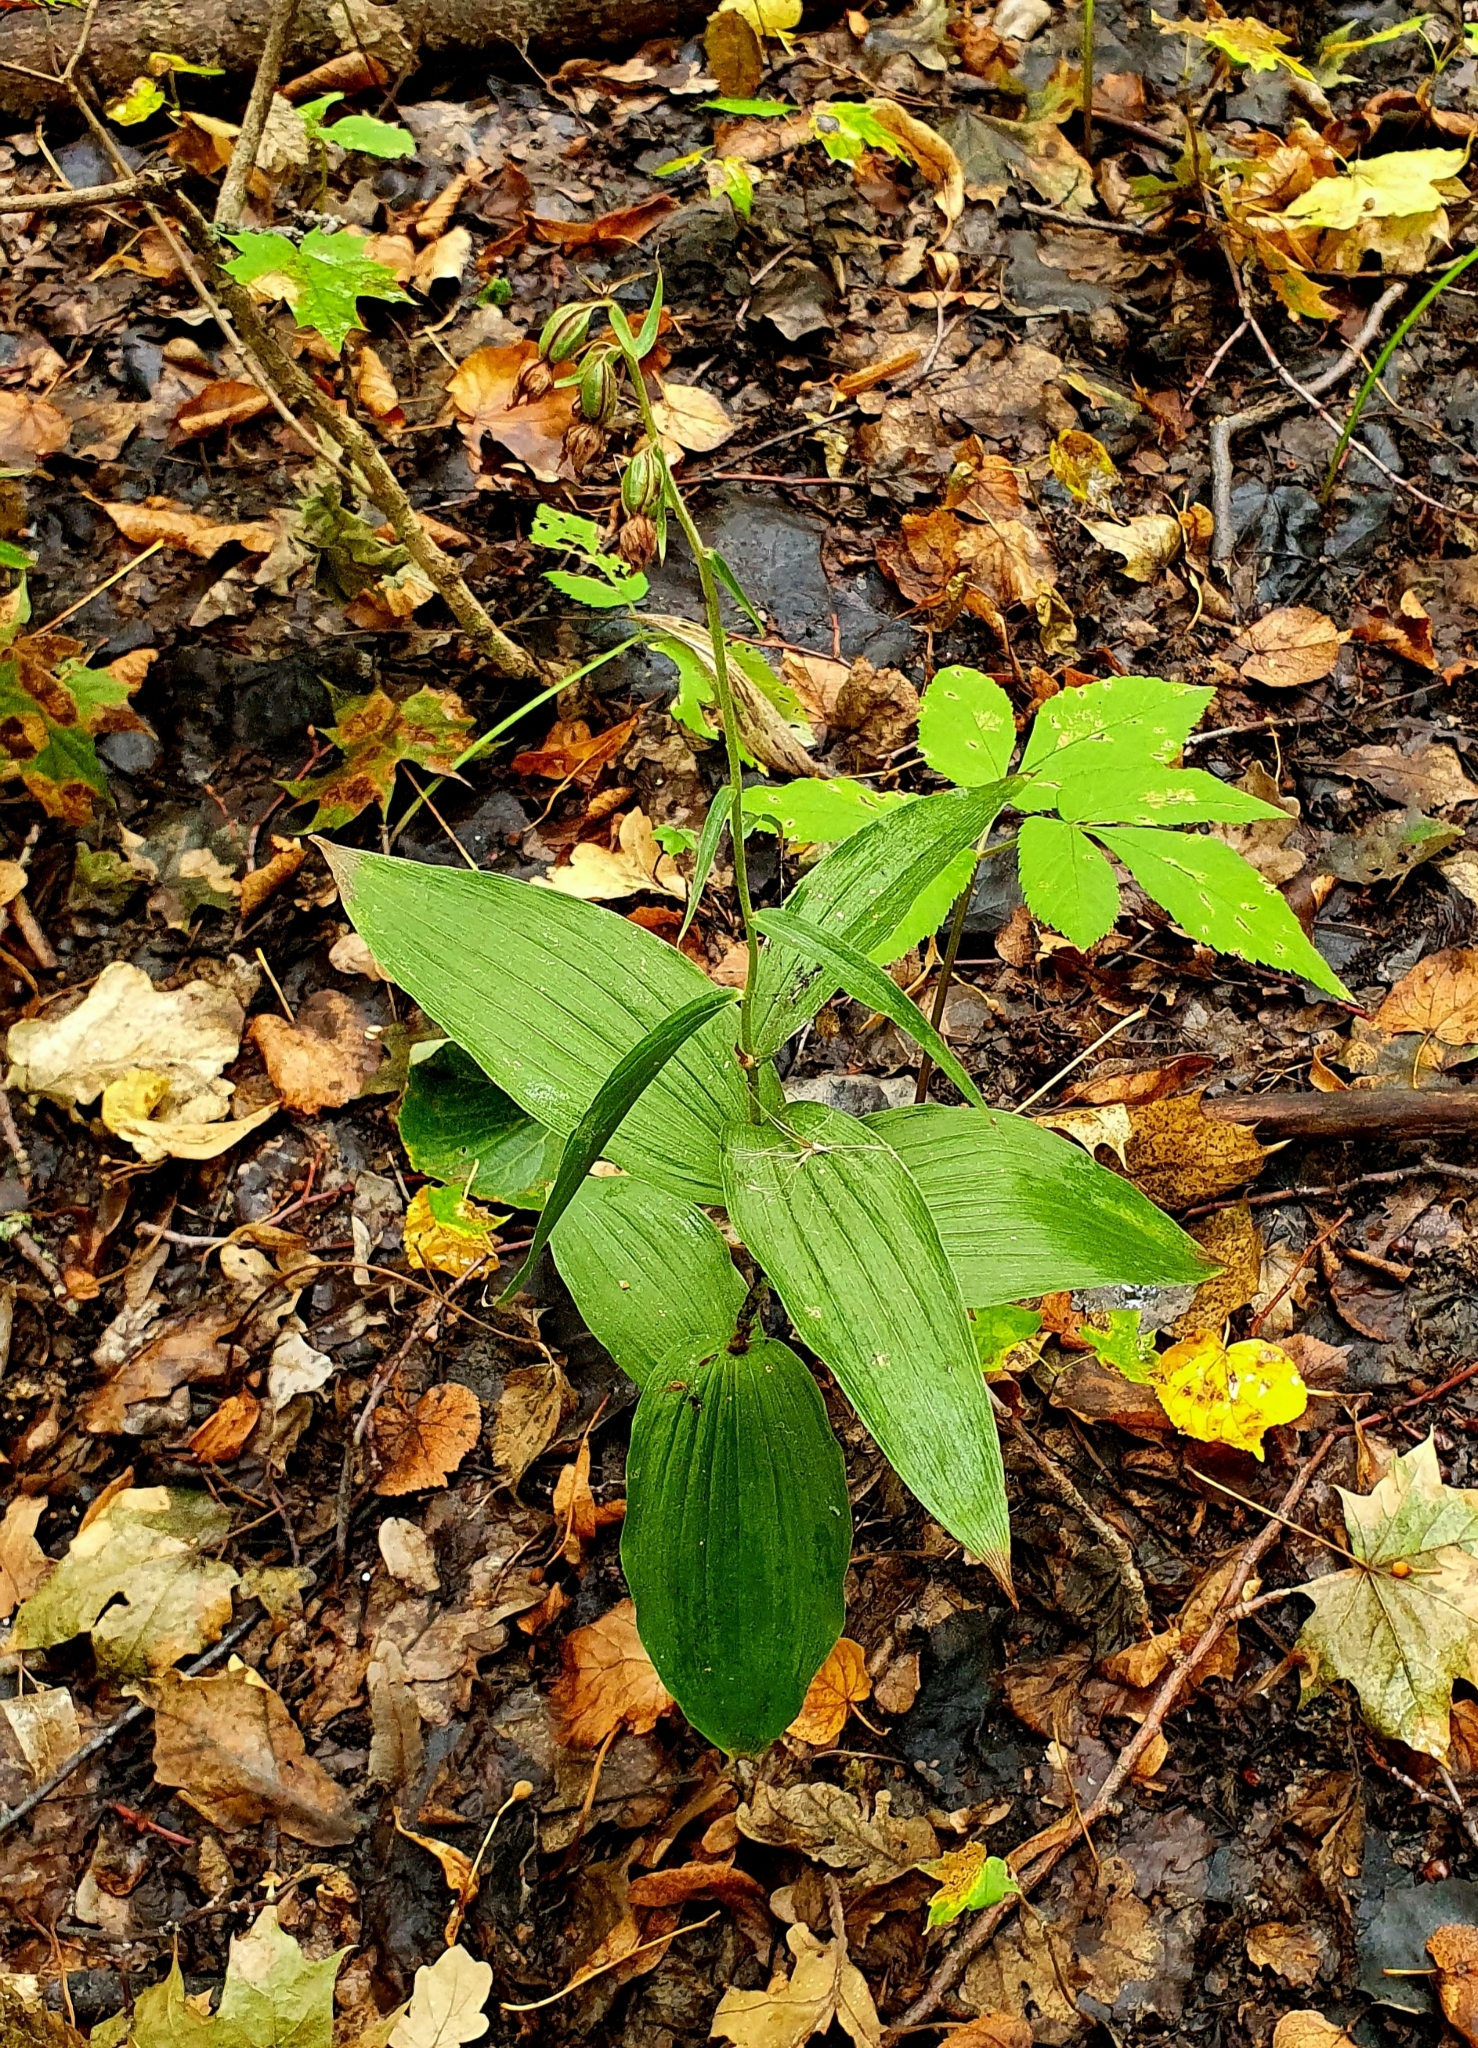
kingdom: Plantae
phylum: Tracheophyta
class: Liliopsida
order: Asparagales
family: Orchidaceae
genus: Epipactis
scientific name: Epipactis helleborine
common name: Broad-leaved helleborine
